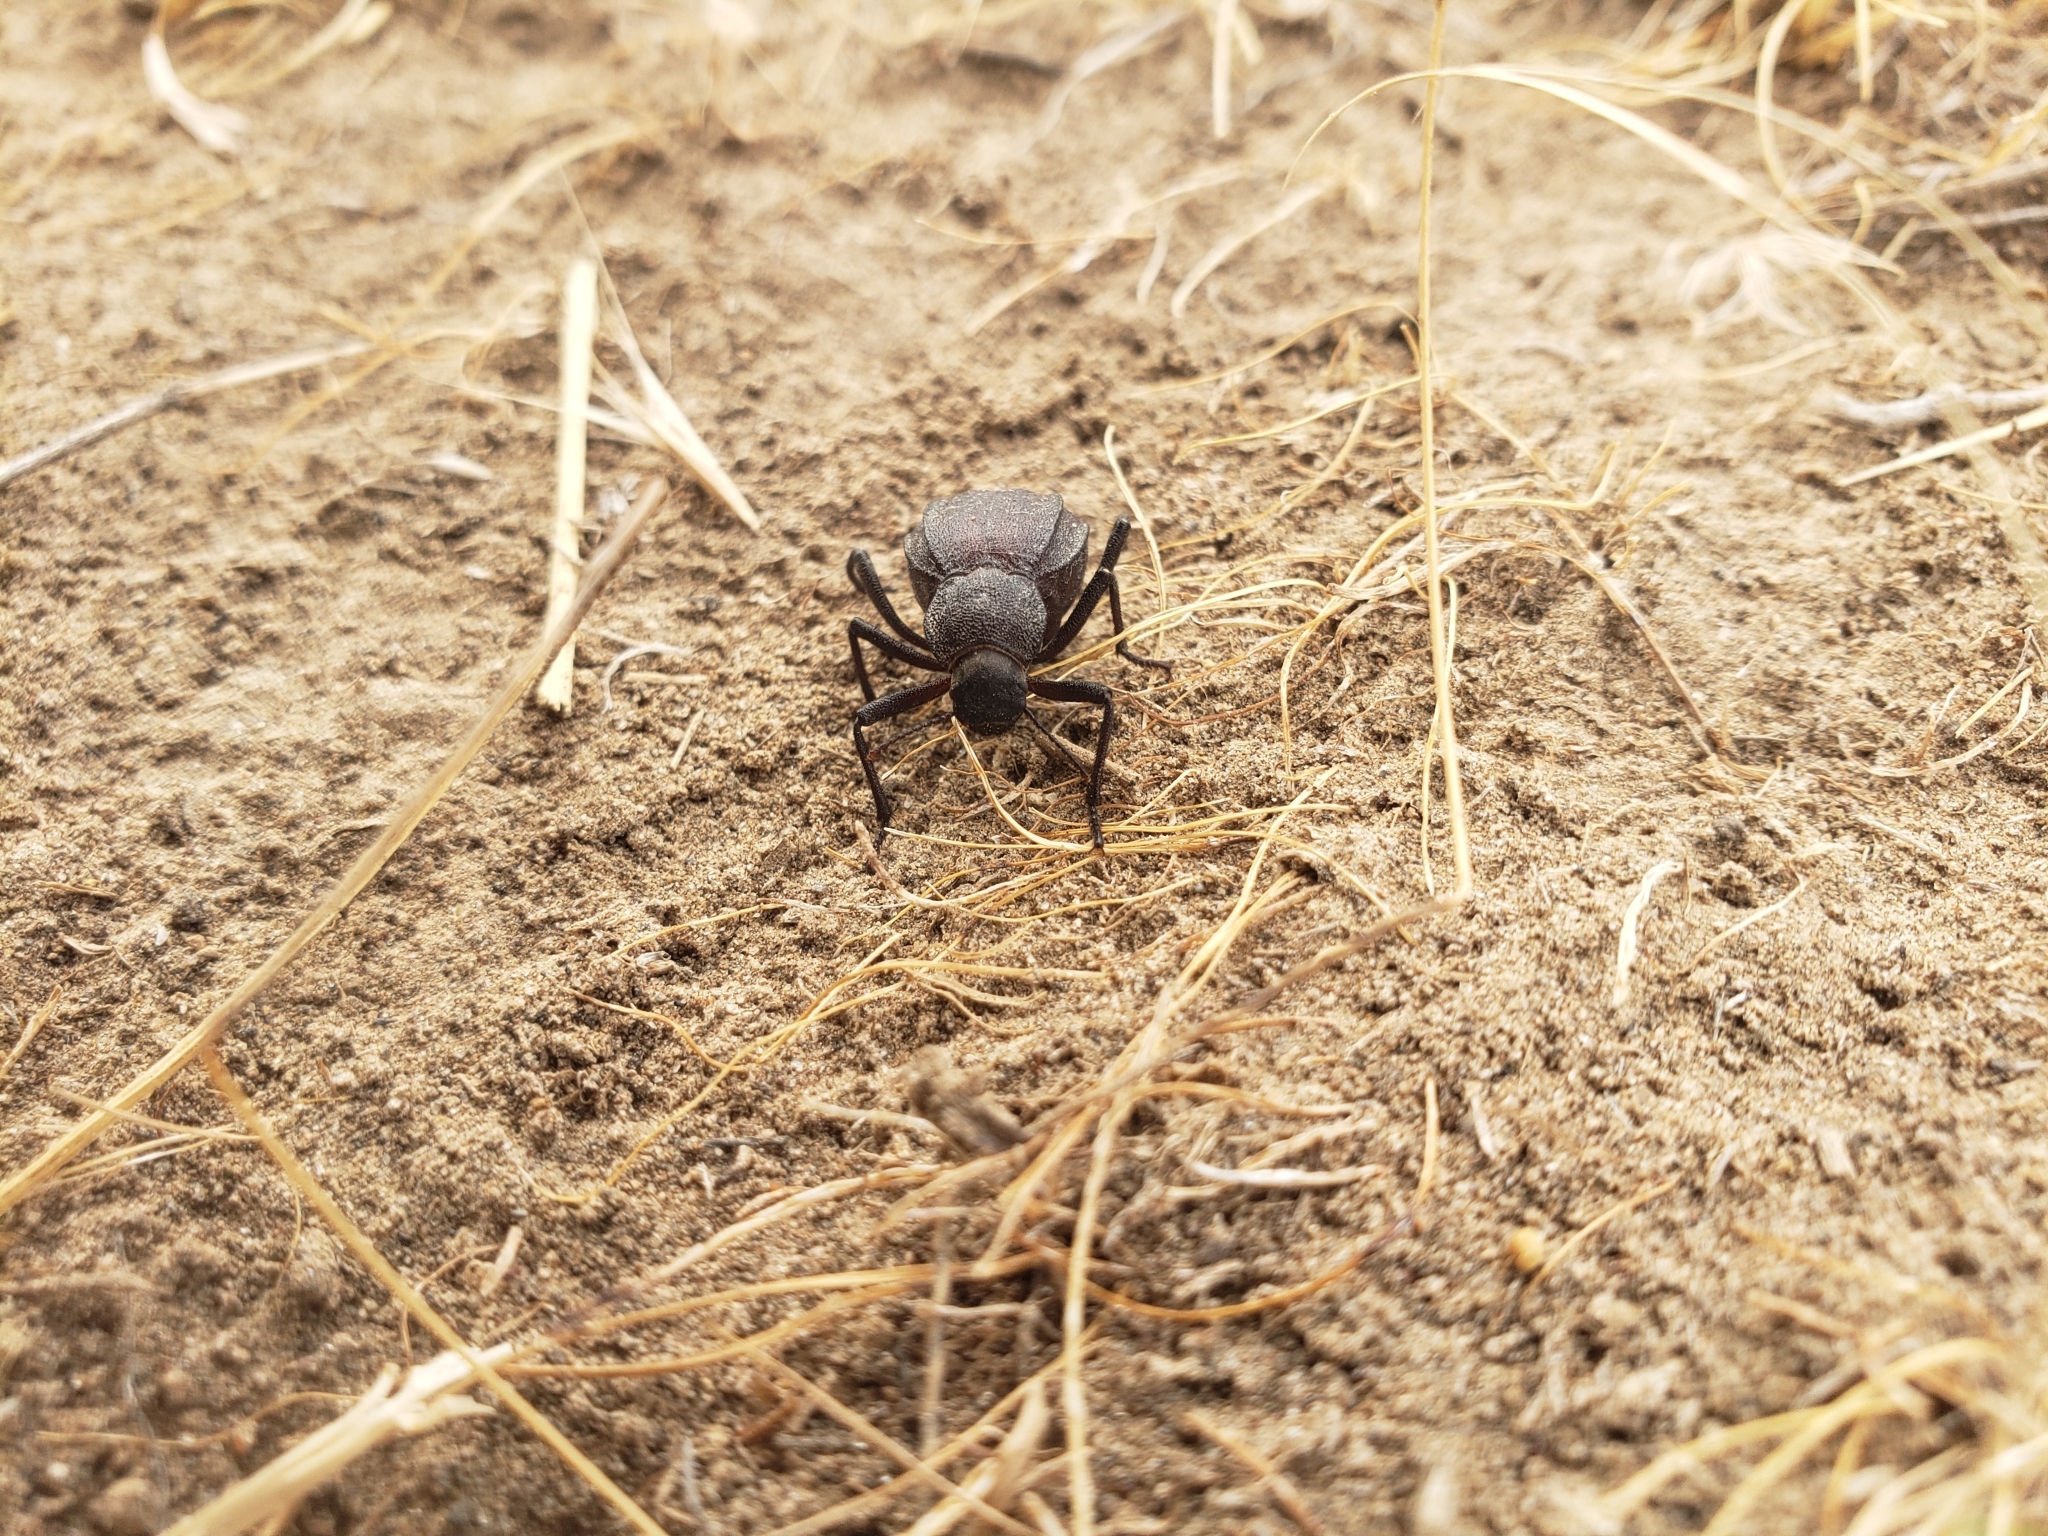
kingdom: Animalia
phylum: Arthropoda
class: Insecta
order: Coleoptera
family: Tenebrionidae
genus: Philolithus
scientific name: Philolithus densicollis
